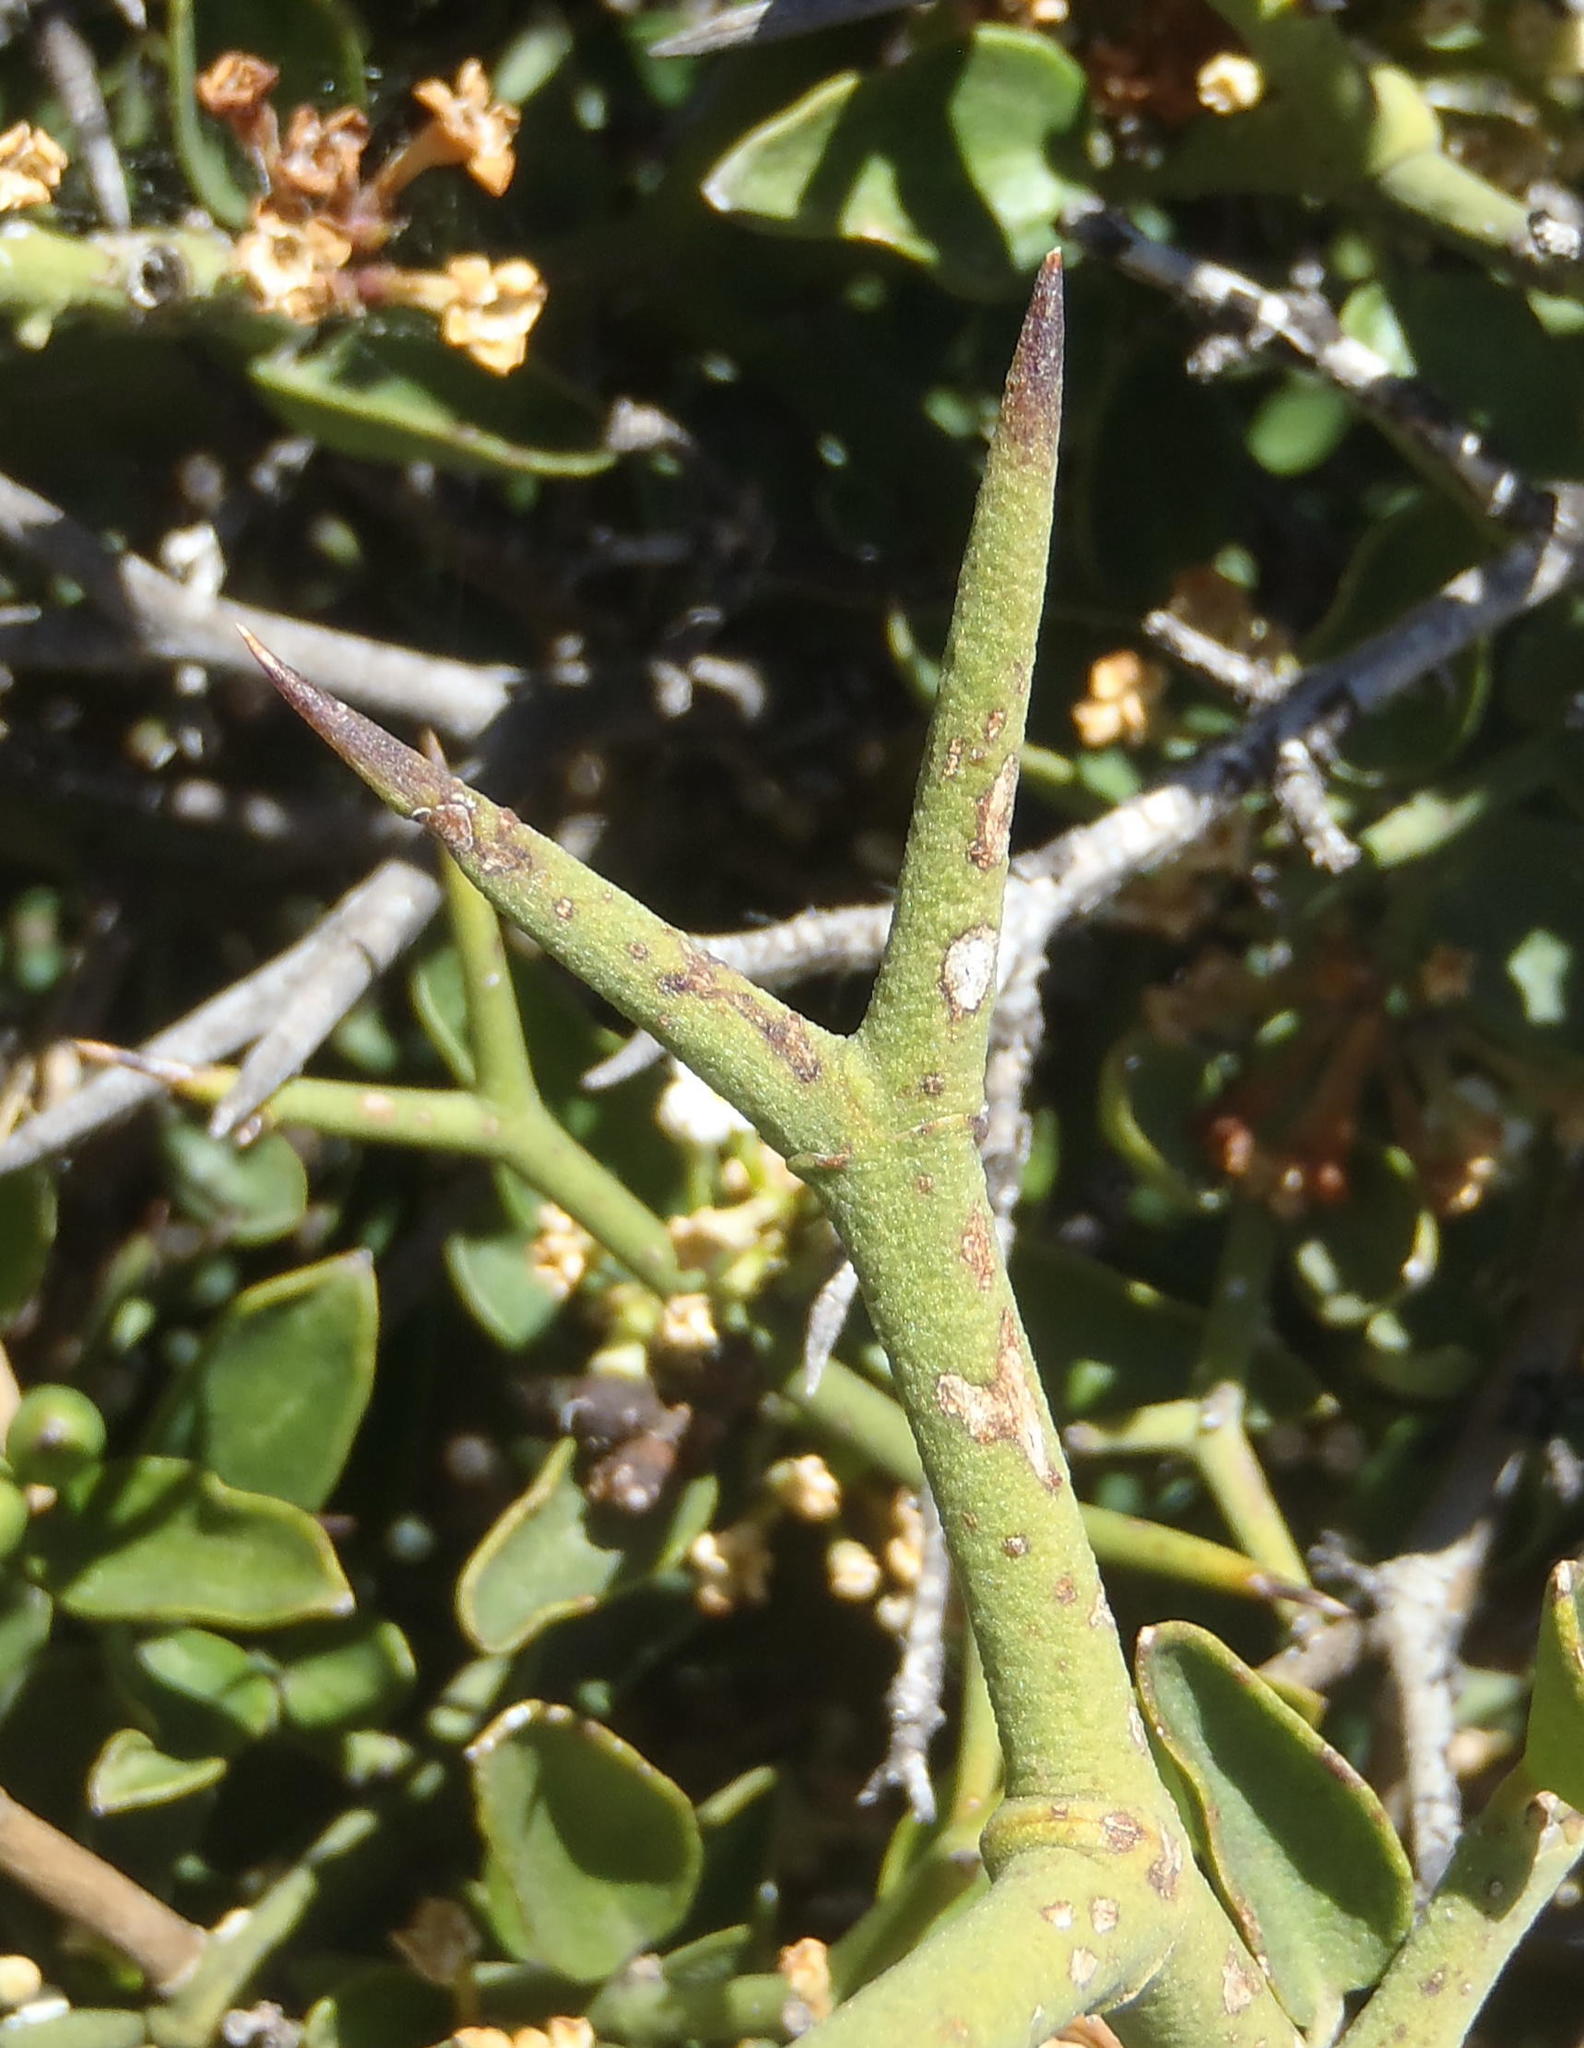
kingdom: Plantae
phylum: Tracheophyta
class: Magnoliopsida
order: Gentianales
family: Apocynaceae
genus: Carissa
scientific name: Carissa haematocarpa
